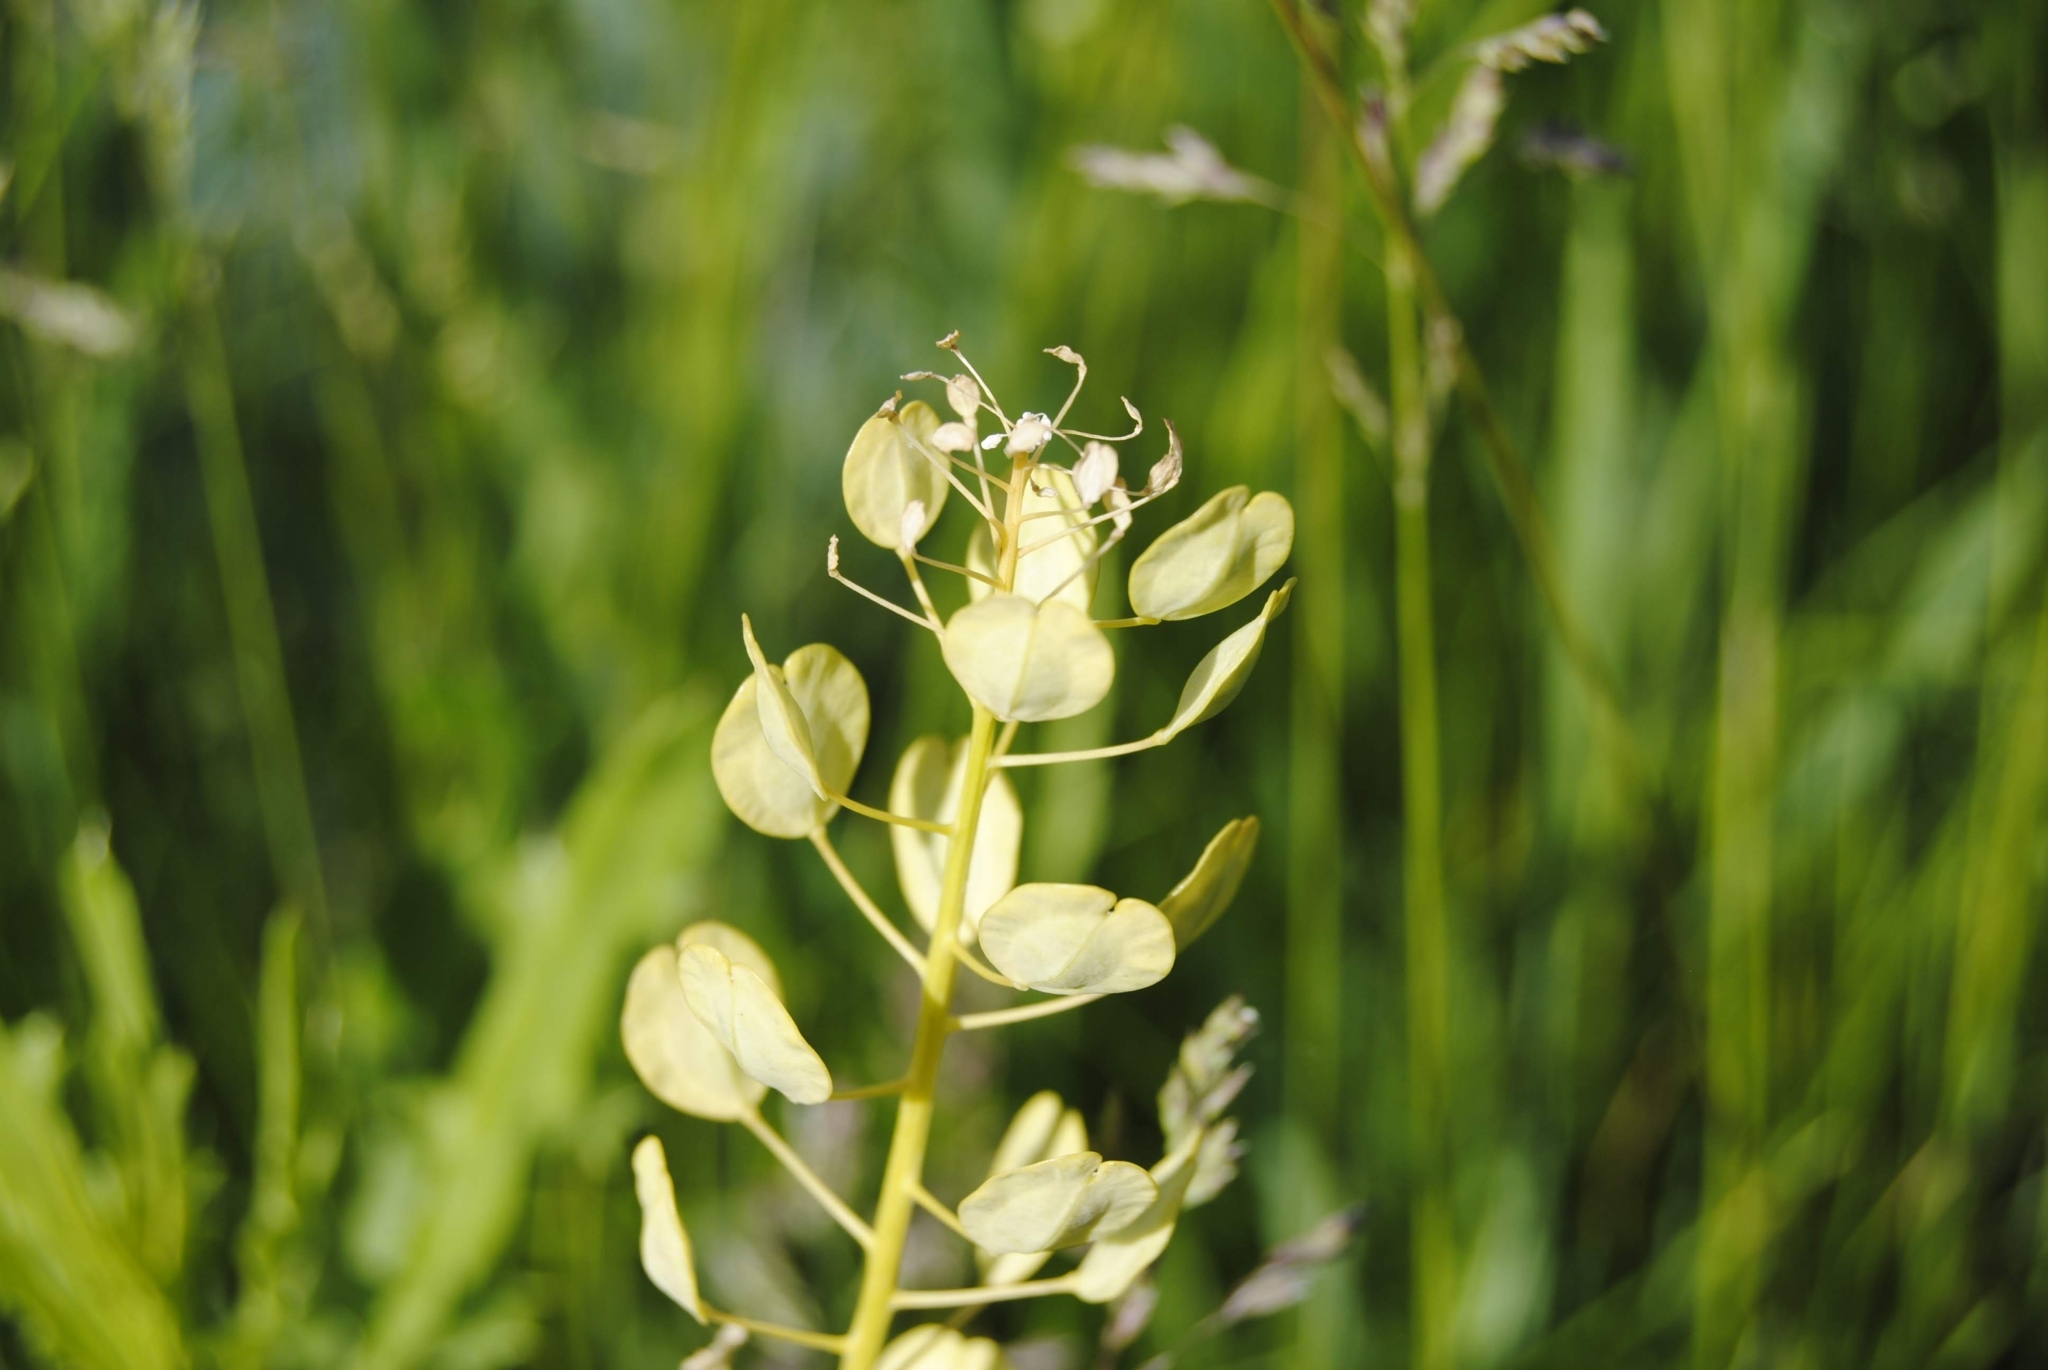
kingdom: Plantae
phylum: Tracheophyta
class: Magnoliopsida
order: Brassicales
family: Brassicaceae
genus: Thlaspi
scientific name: Thlaspi arvense
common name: Field pennycress
